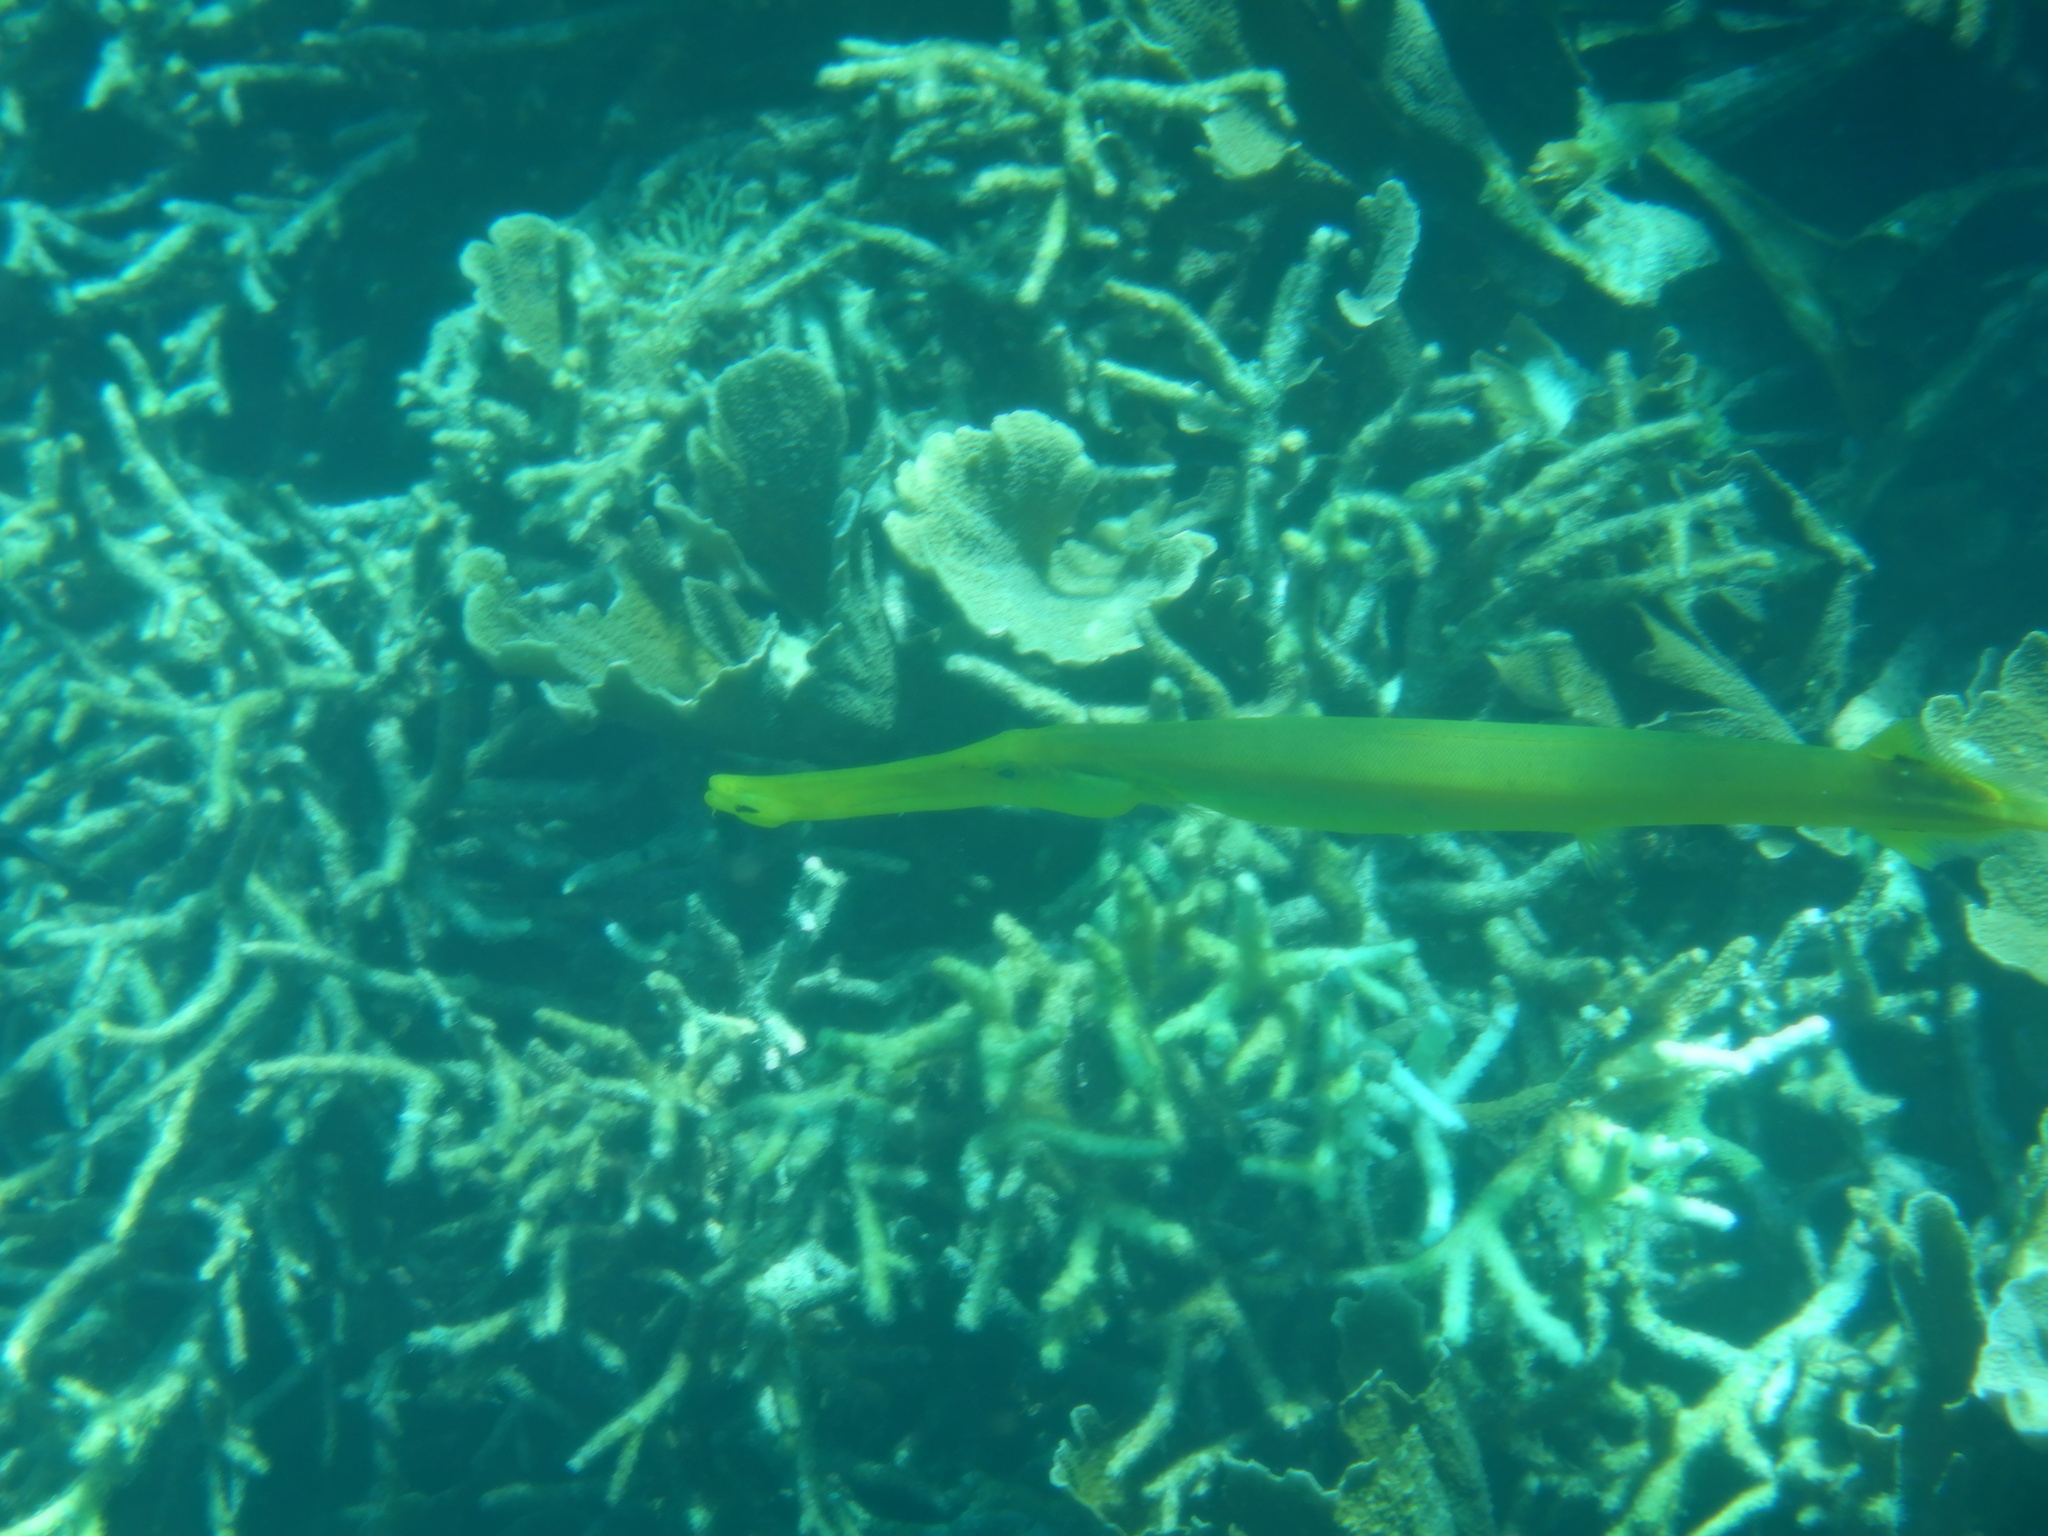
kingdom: Animalia
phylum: Chordata
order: Syngnathiformes
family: Aulostomidae
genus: Aulostomus
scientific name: Aulostomus chinensis
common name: Chinese trumpetfish
